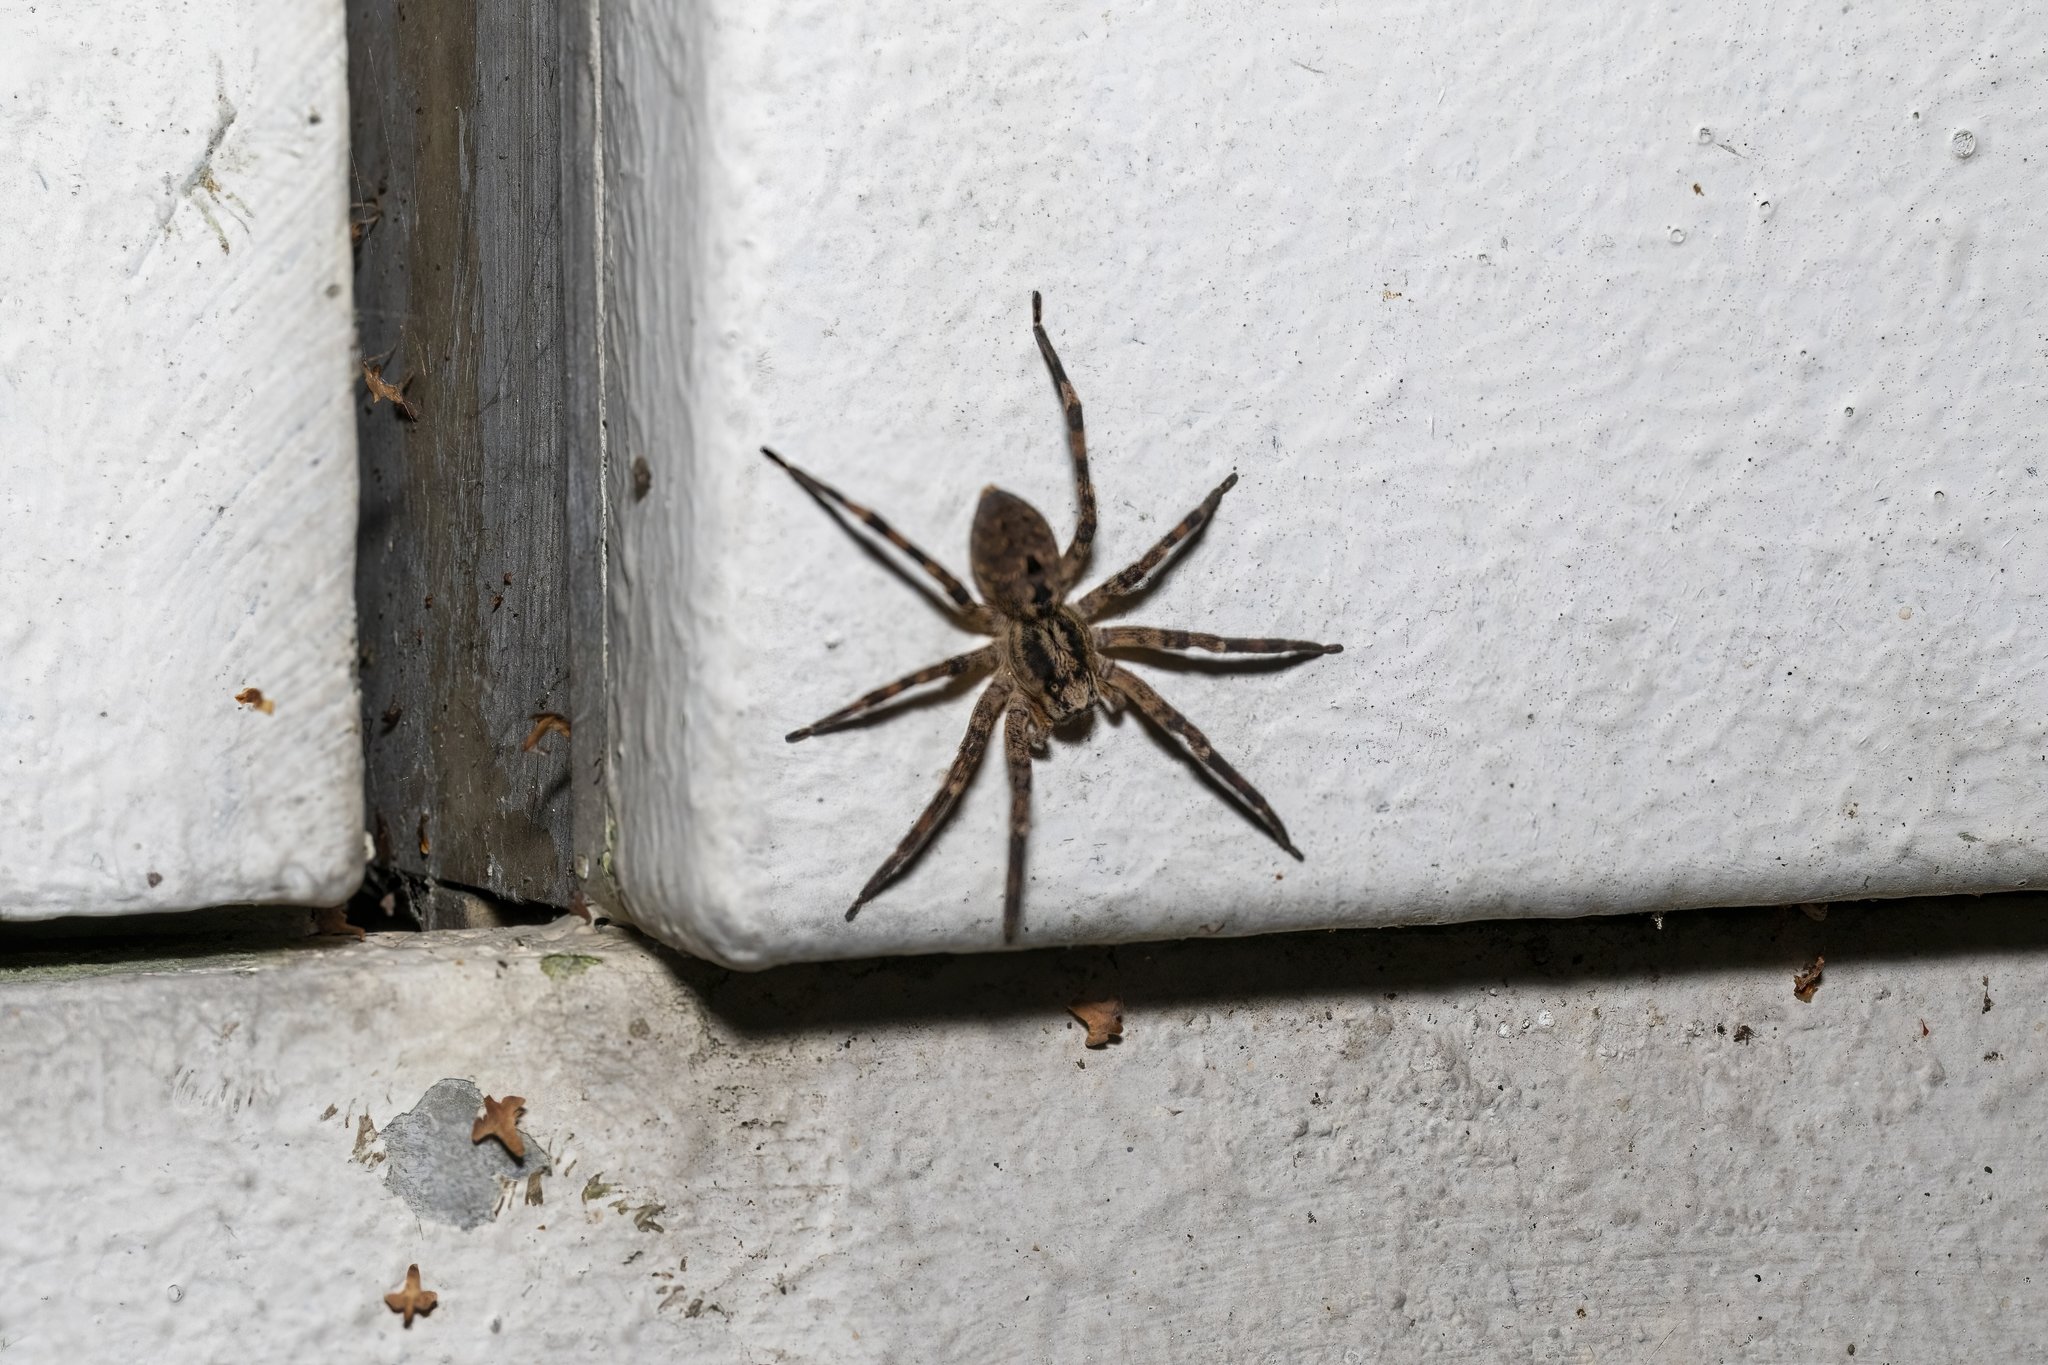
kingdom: Animalia
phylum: Arthropoda
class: Arachnida
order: Araneae
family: Zoropsidae
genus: Zoropsis
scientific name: Zoropsis spinimana
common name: Zoropsid spider
